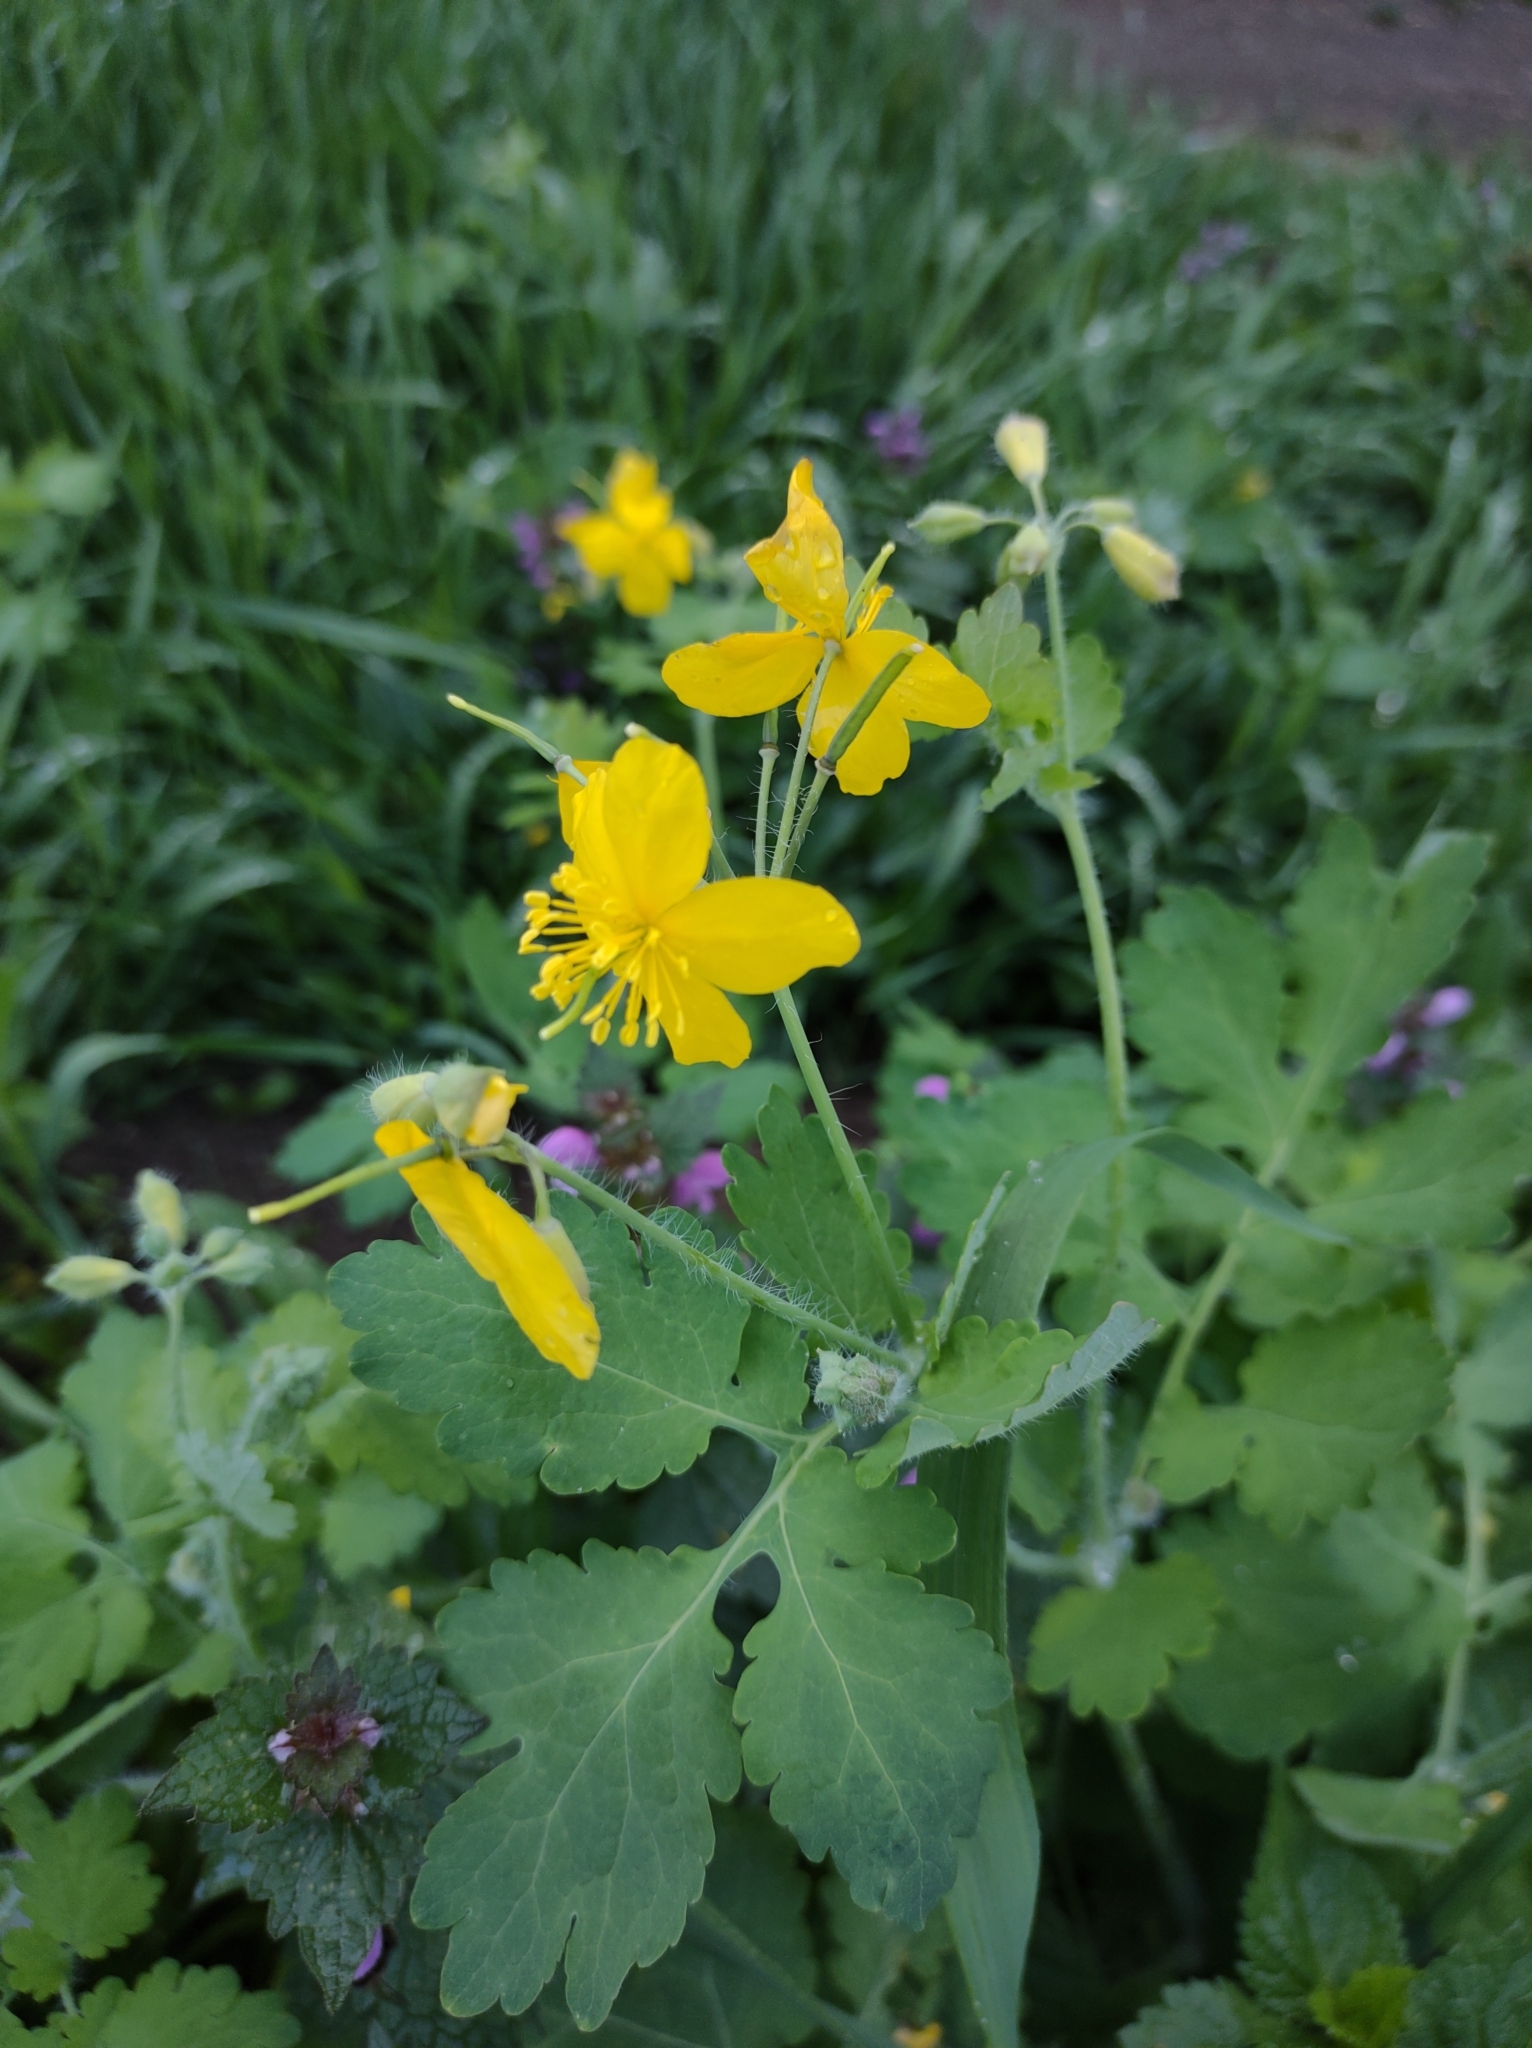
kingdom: Plantae
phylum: Tracheophyta
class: Magnoliopsida
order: Ranunculales
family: Papaveraceae
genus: Chelidonium
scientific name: Chelidonium majus
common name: Greater celandine
